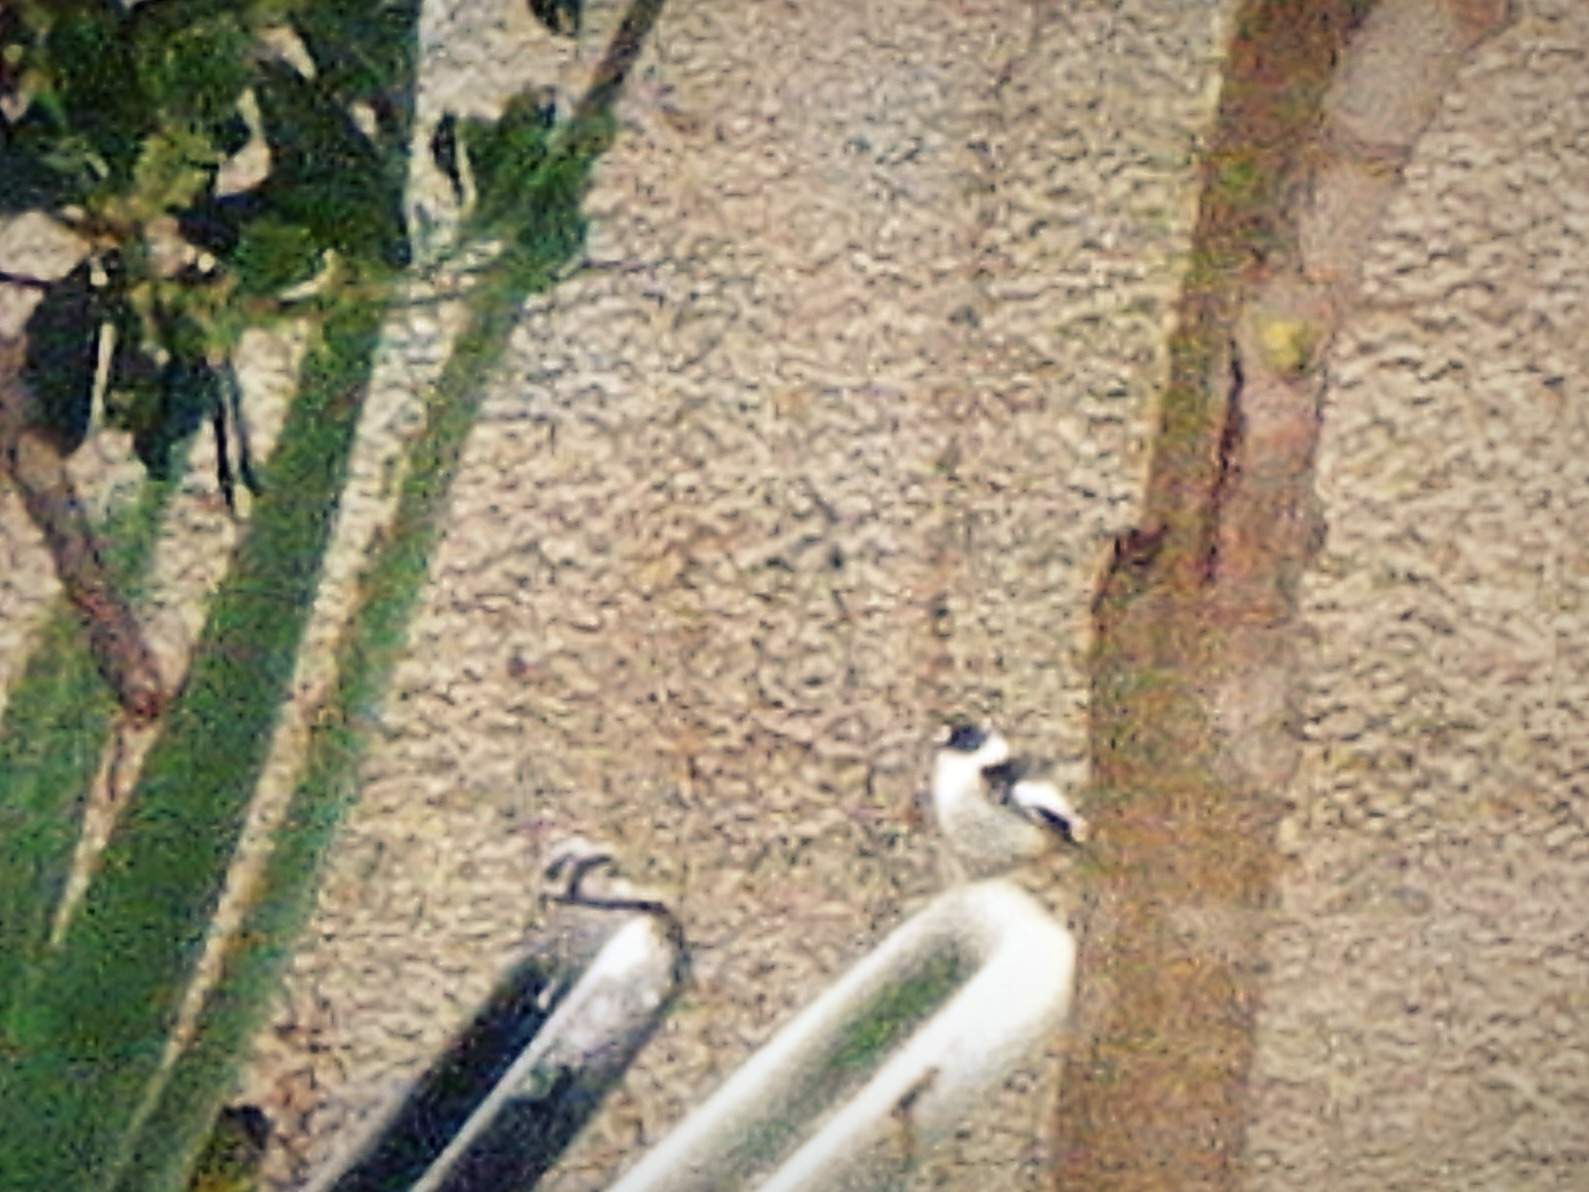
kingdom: Animalia
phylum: Chordata
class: Aves
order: Passeriformes
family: Muscicapidae
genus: Ficedula
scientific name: Ficedula albicollis
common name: Collared flycatcher
